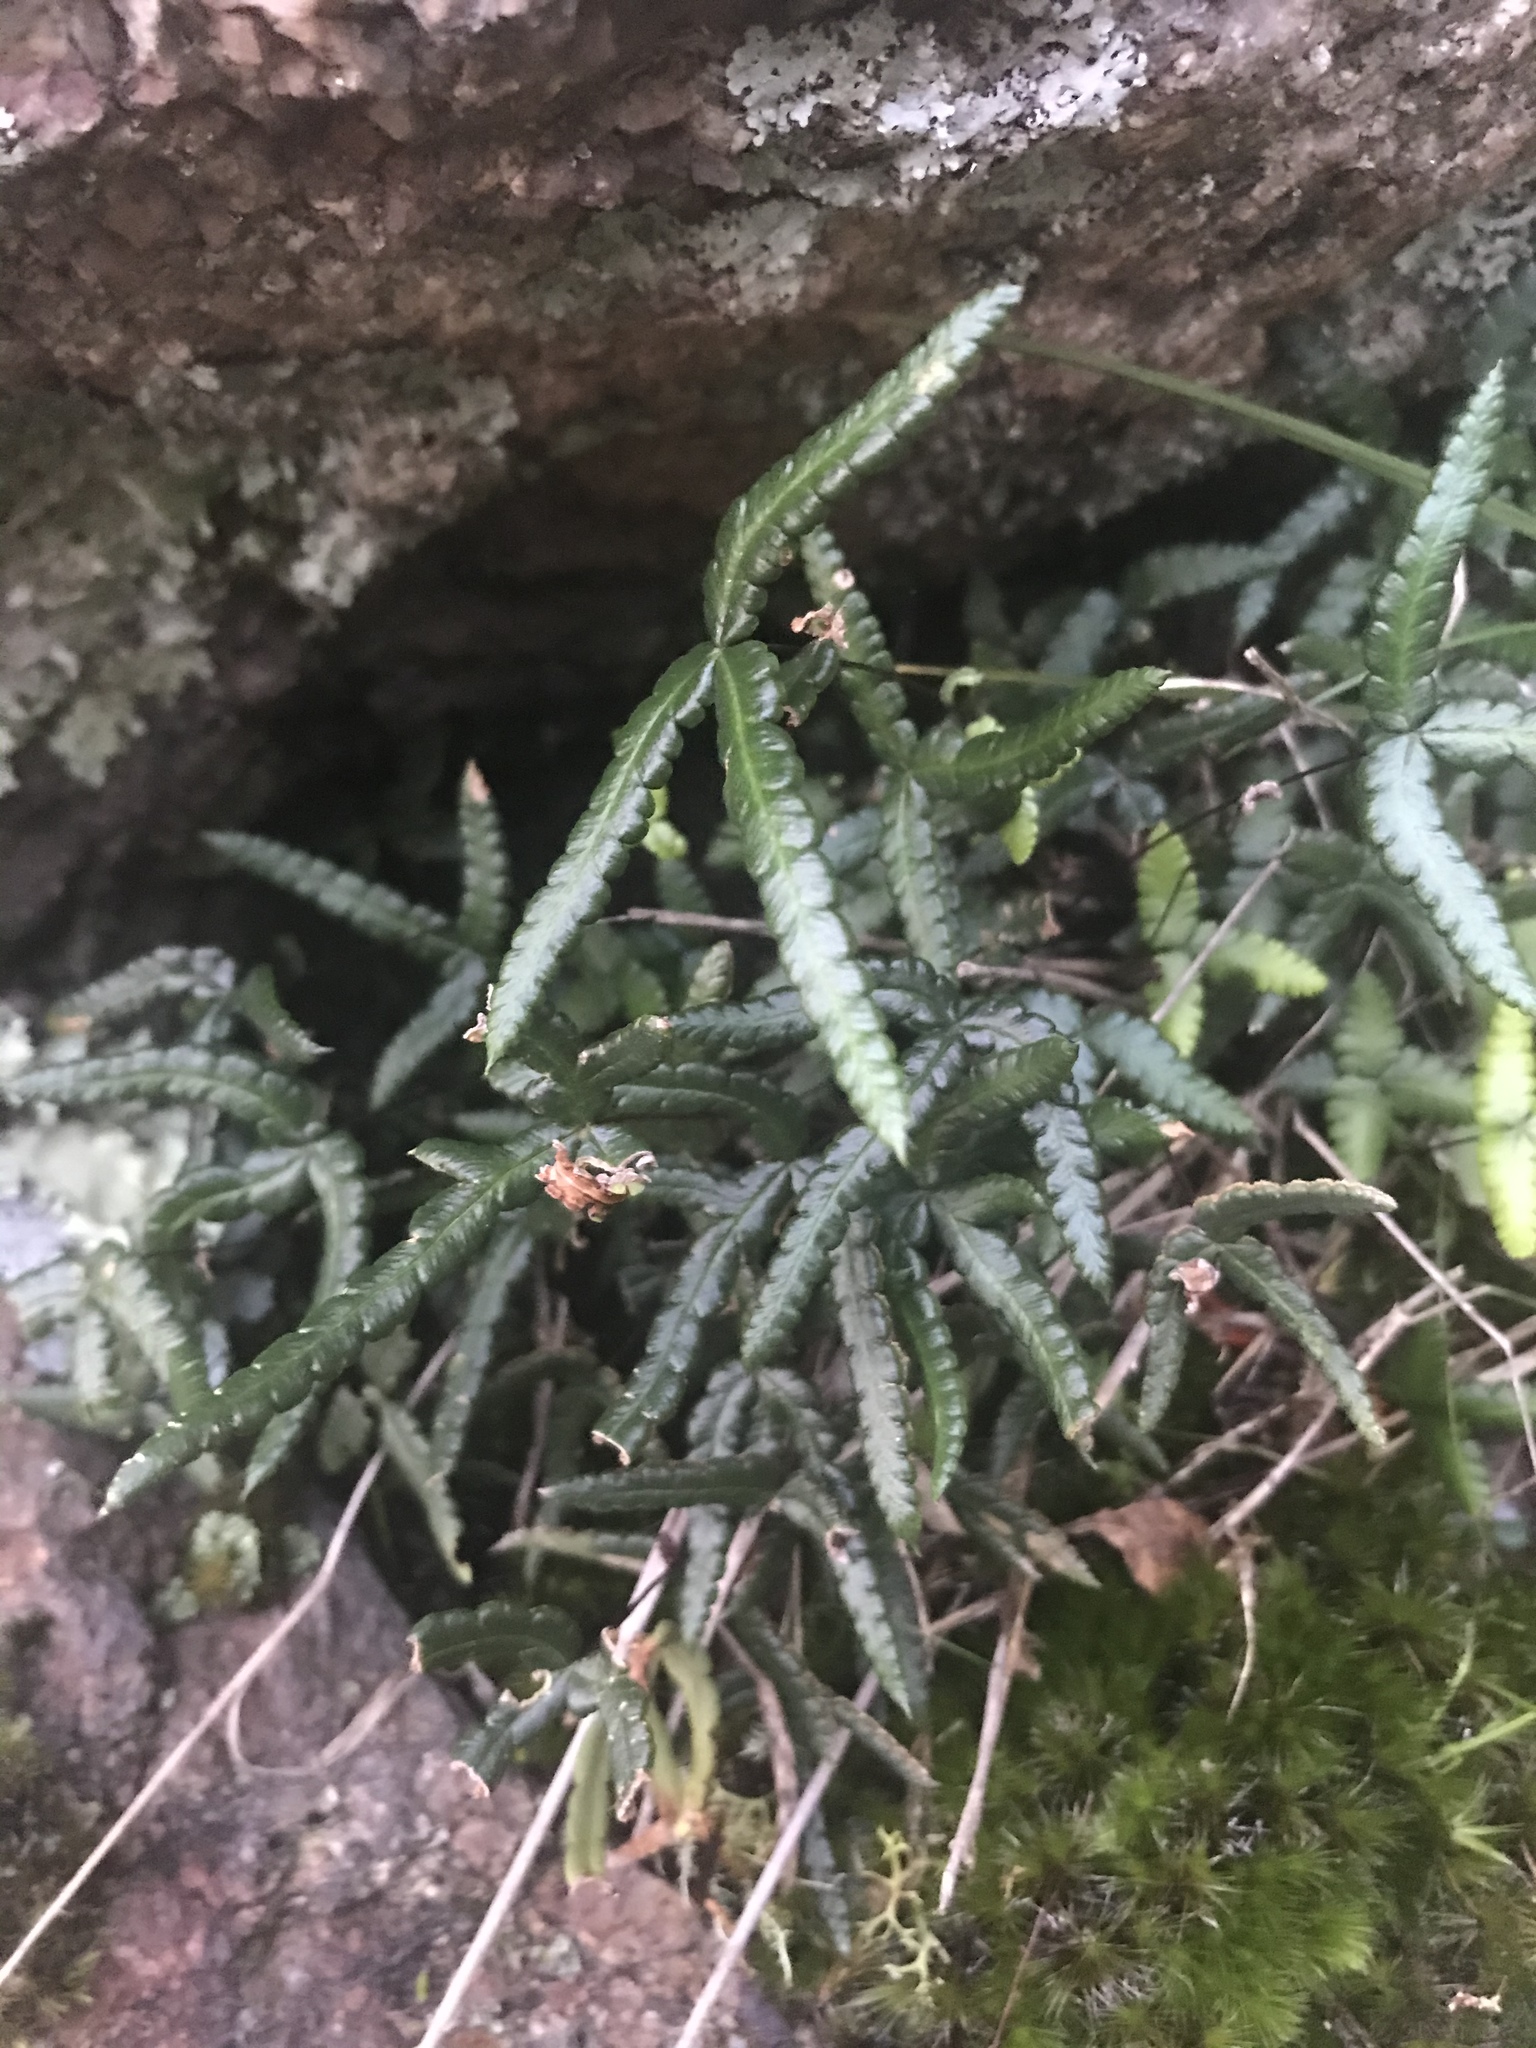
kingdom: Plantae
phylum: Tracheophyta
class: Polypodiopsida
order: Polypodiales
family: Pteridaceae
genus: Doryopteris
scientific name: Doryopteris triphylla
